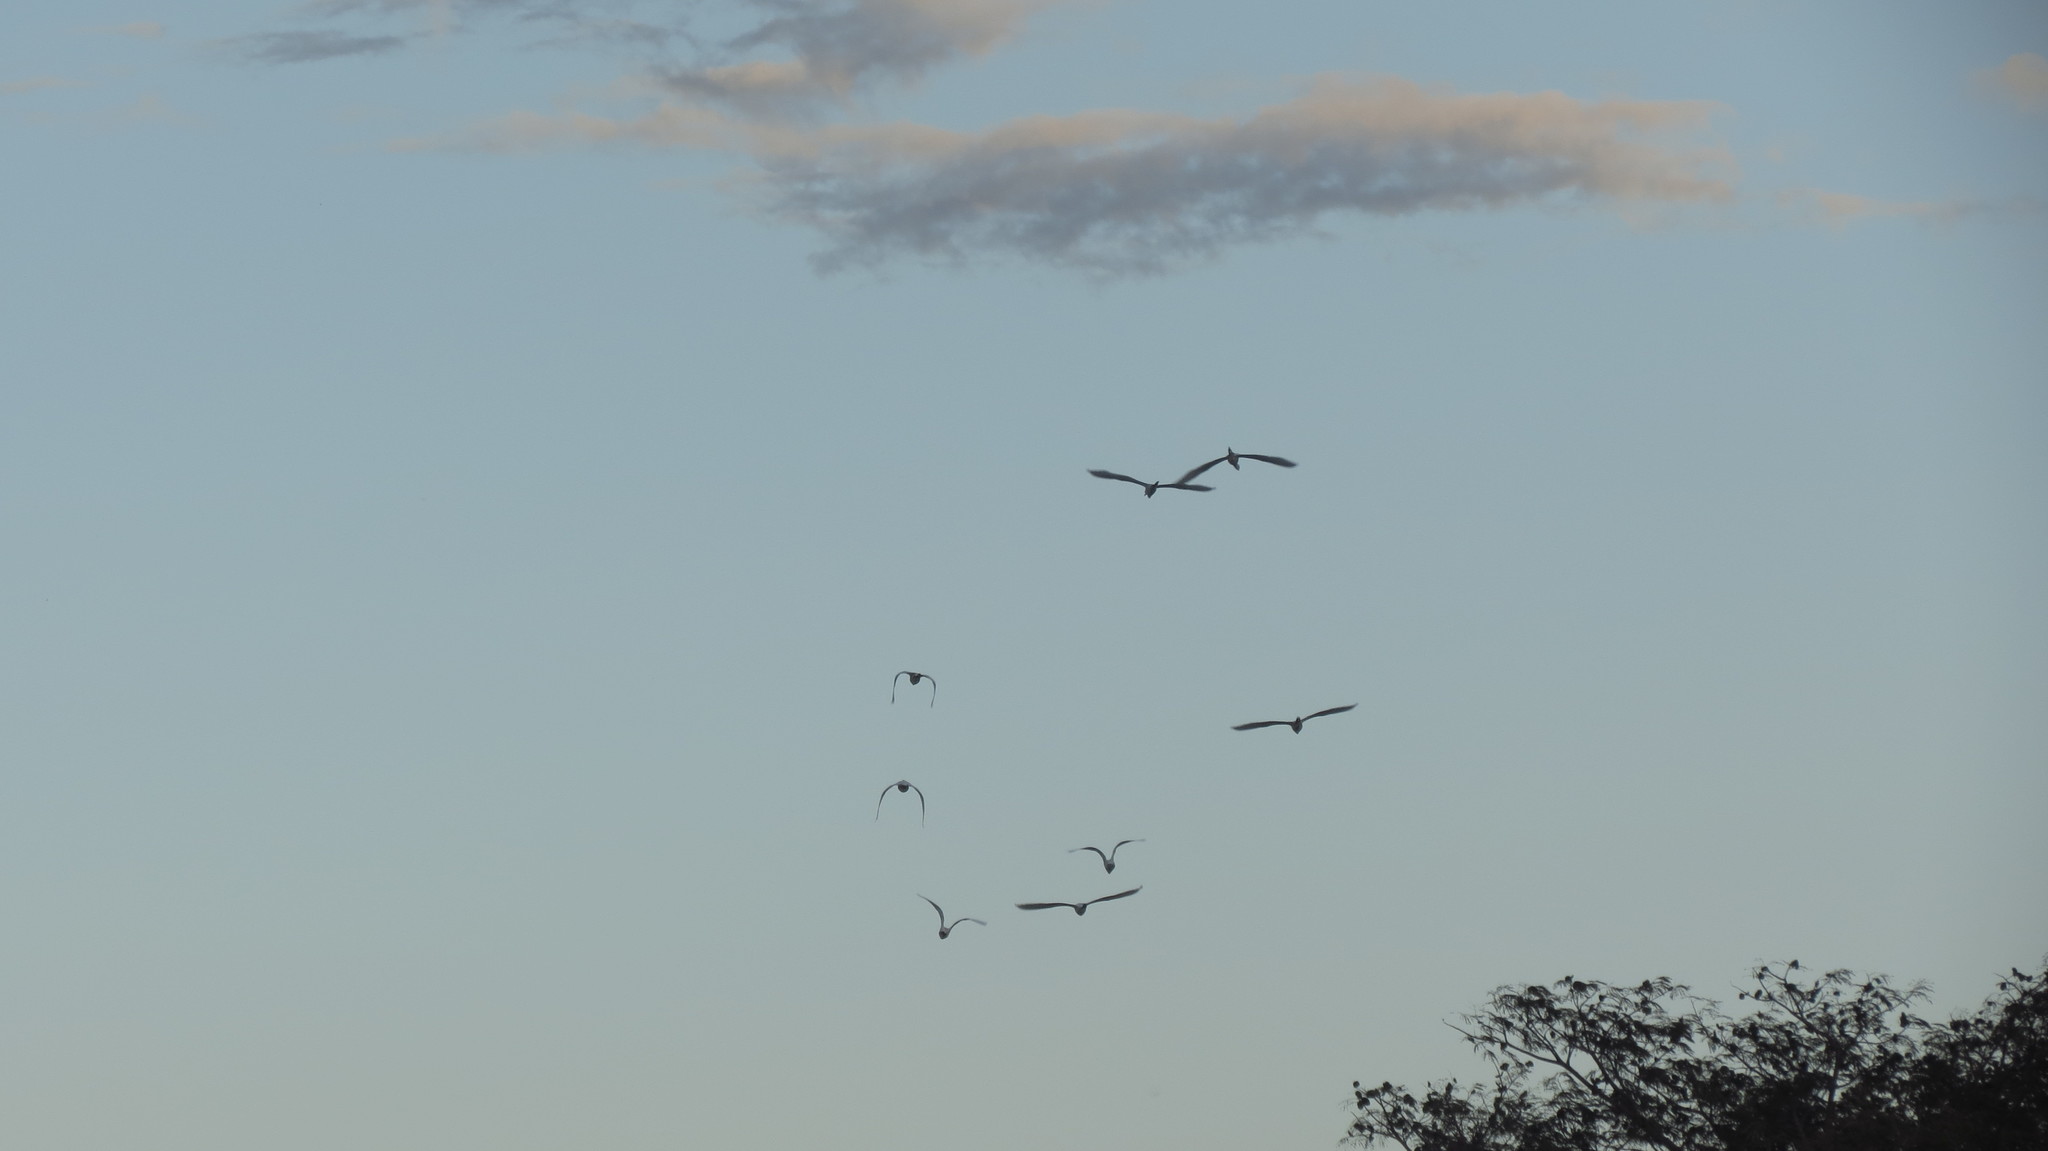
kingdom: Animalia
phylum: Chordata
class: Aves
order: Pelecaniformes
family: Ardeidae
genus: Bubulcus
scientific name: Bubulcus ibis
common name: Cattle egret
